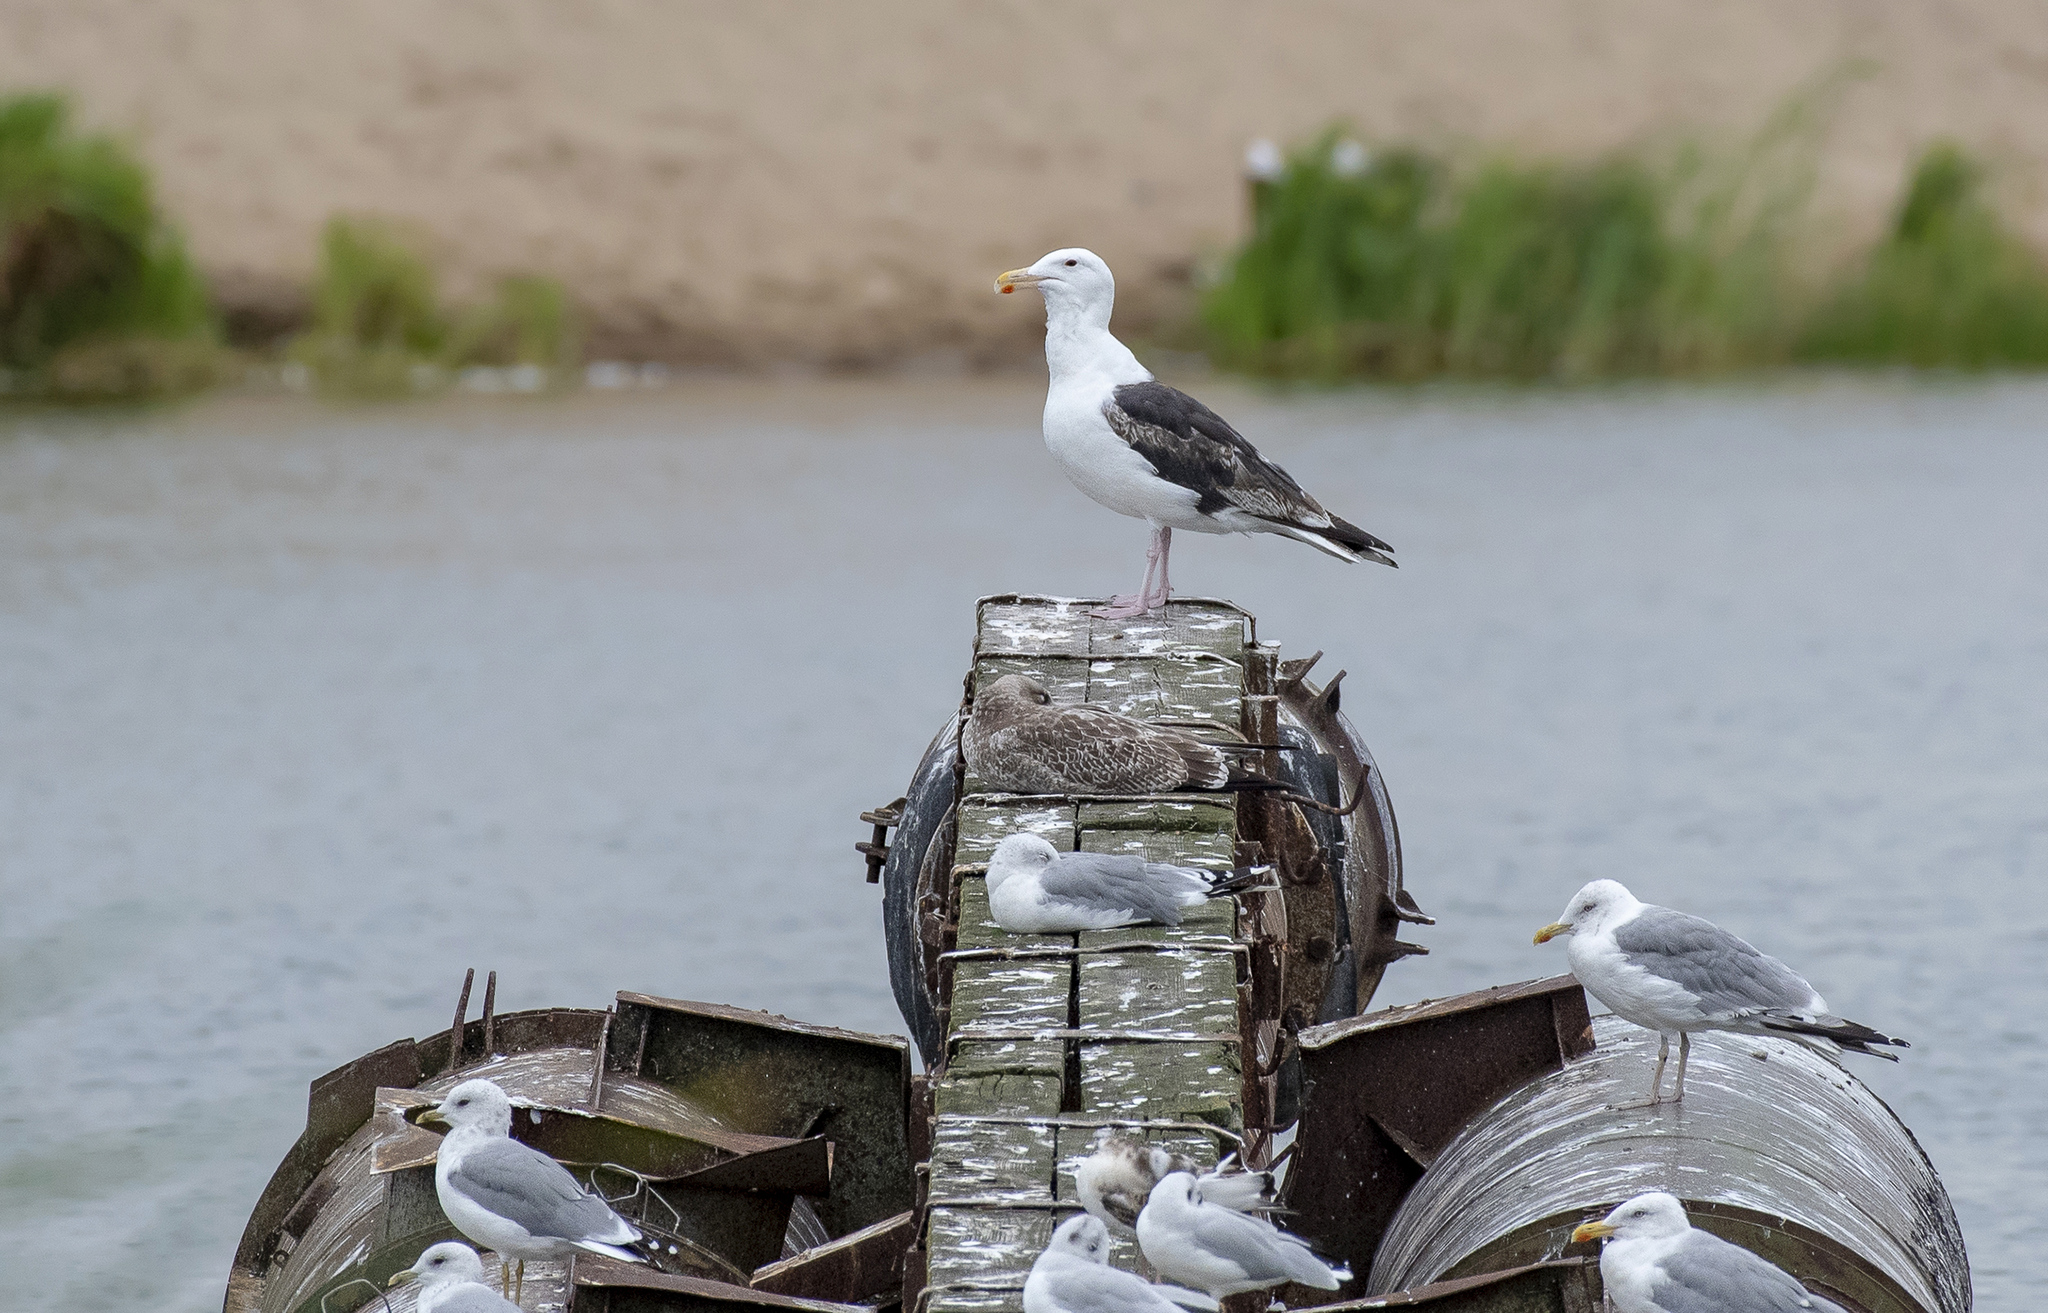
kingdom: Animalia
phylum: Chordata
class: Aves
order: Charadriiformes
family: Laridae
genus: Larus
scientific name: Larus marinus
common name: Great black-backed gull
